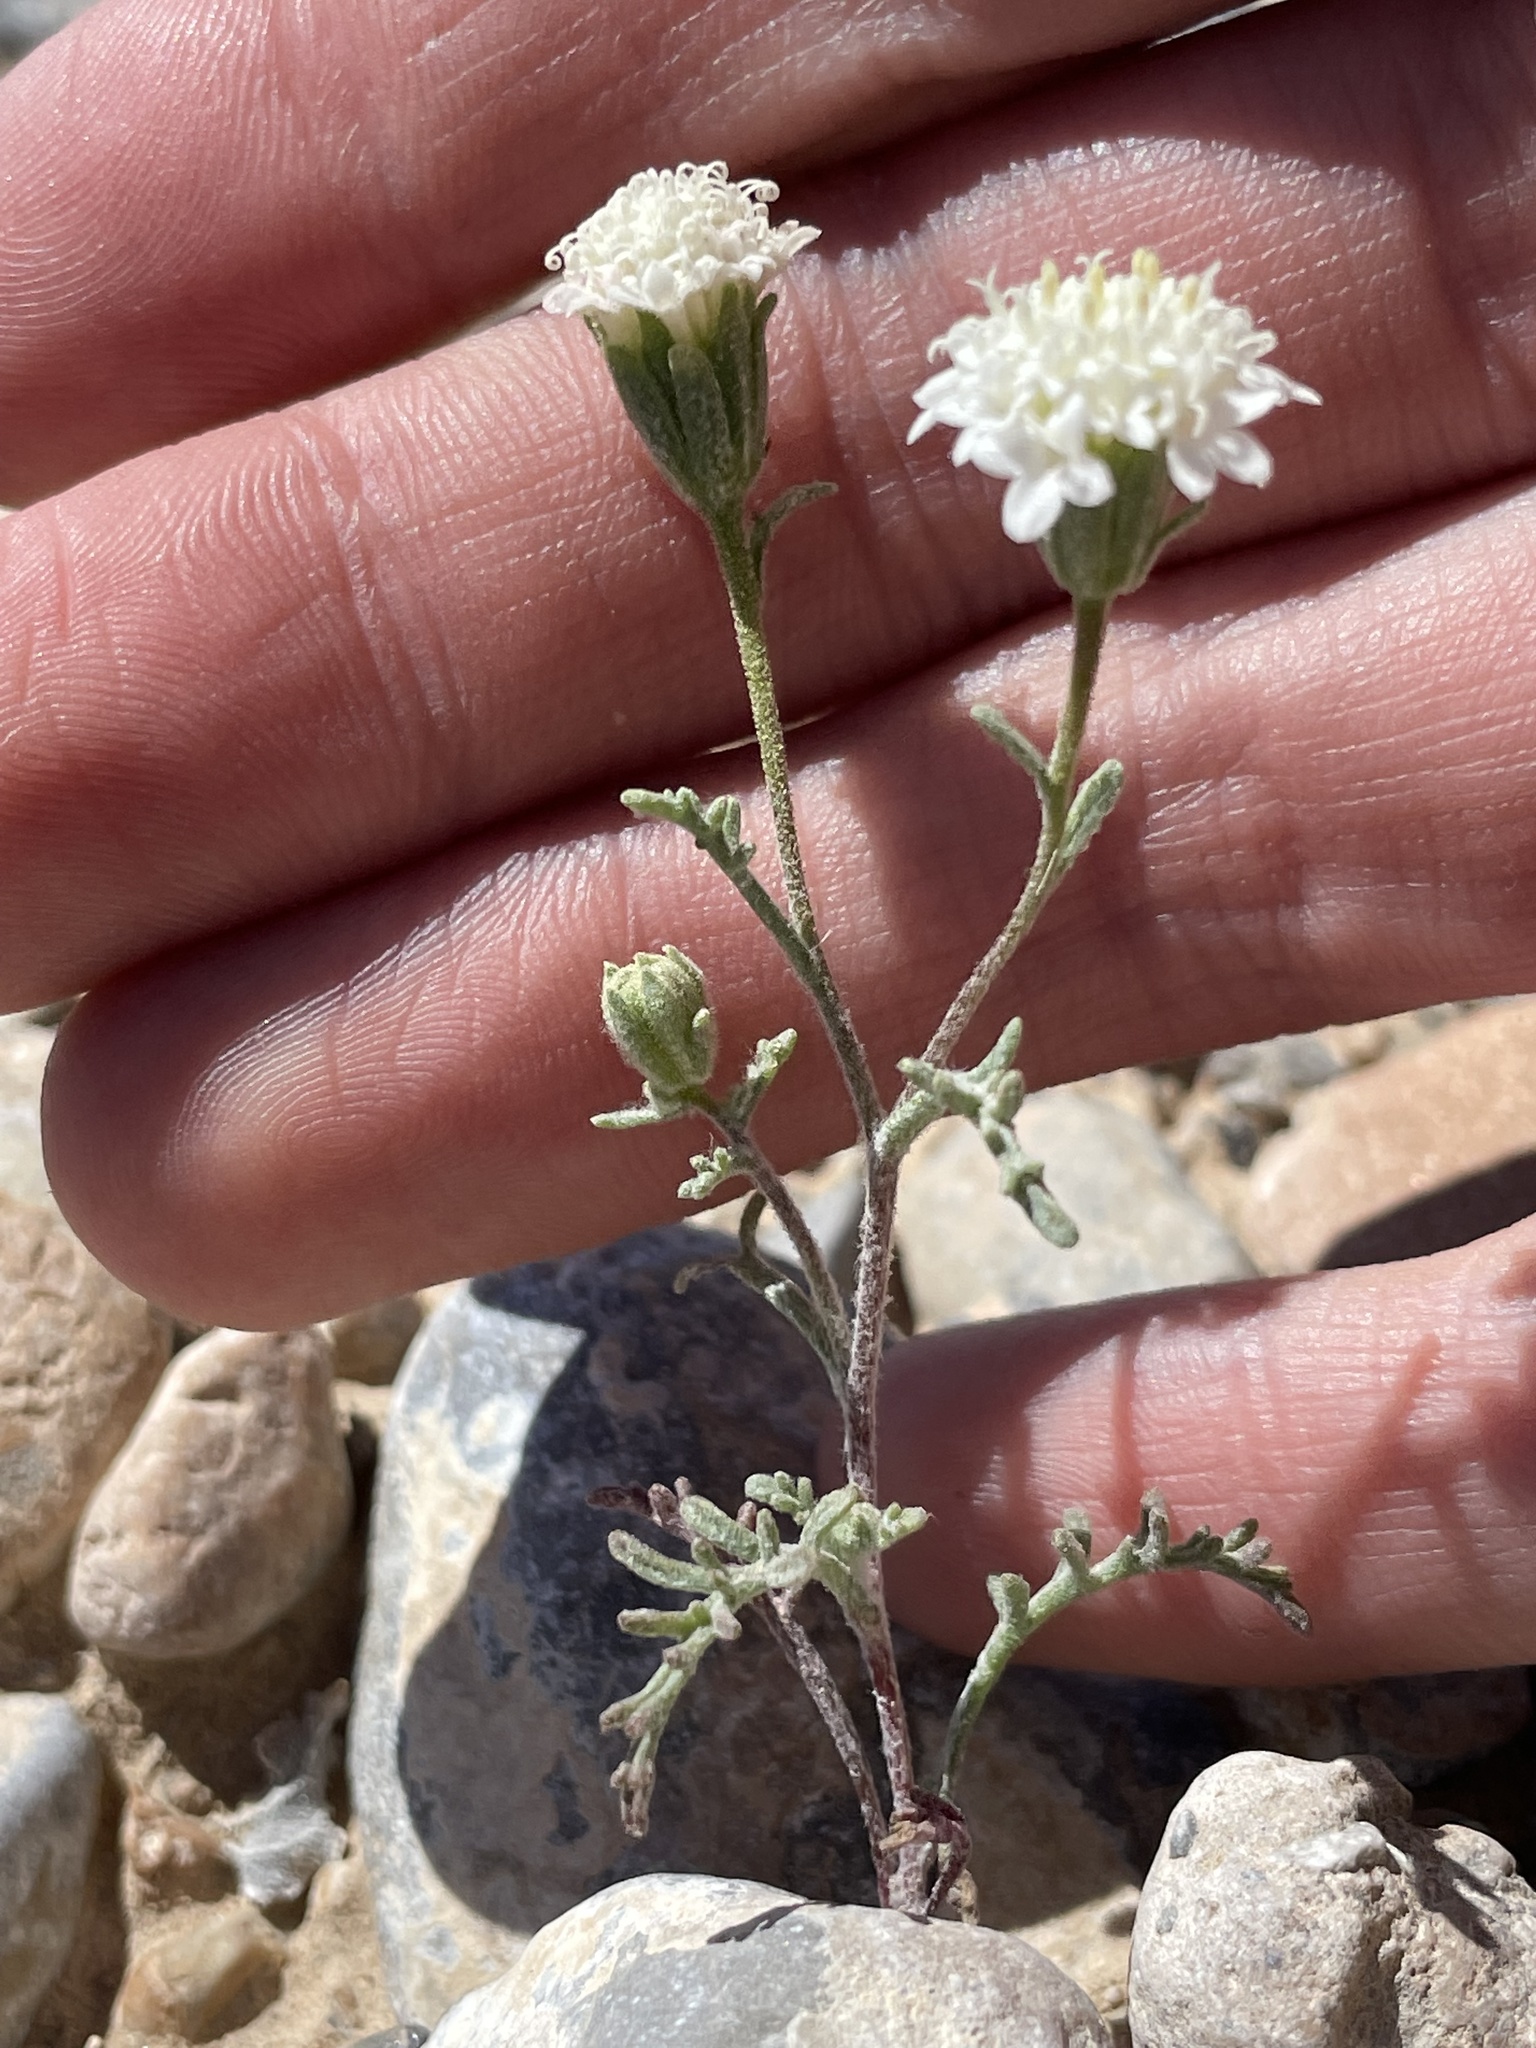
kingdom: Plantae
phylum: Tracheophyta
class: Magnoliopsida
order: Asterales
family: Asteraceae
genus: Chaenactis
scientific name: Chaenactis stevioides
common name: Desert pincushion
